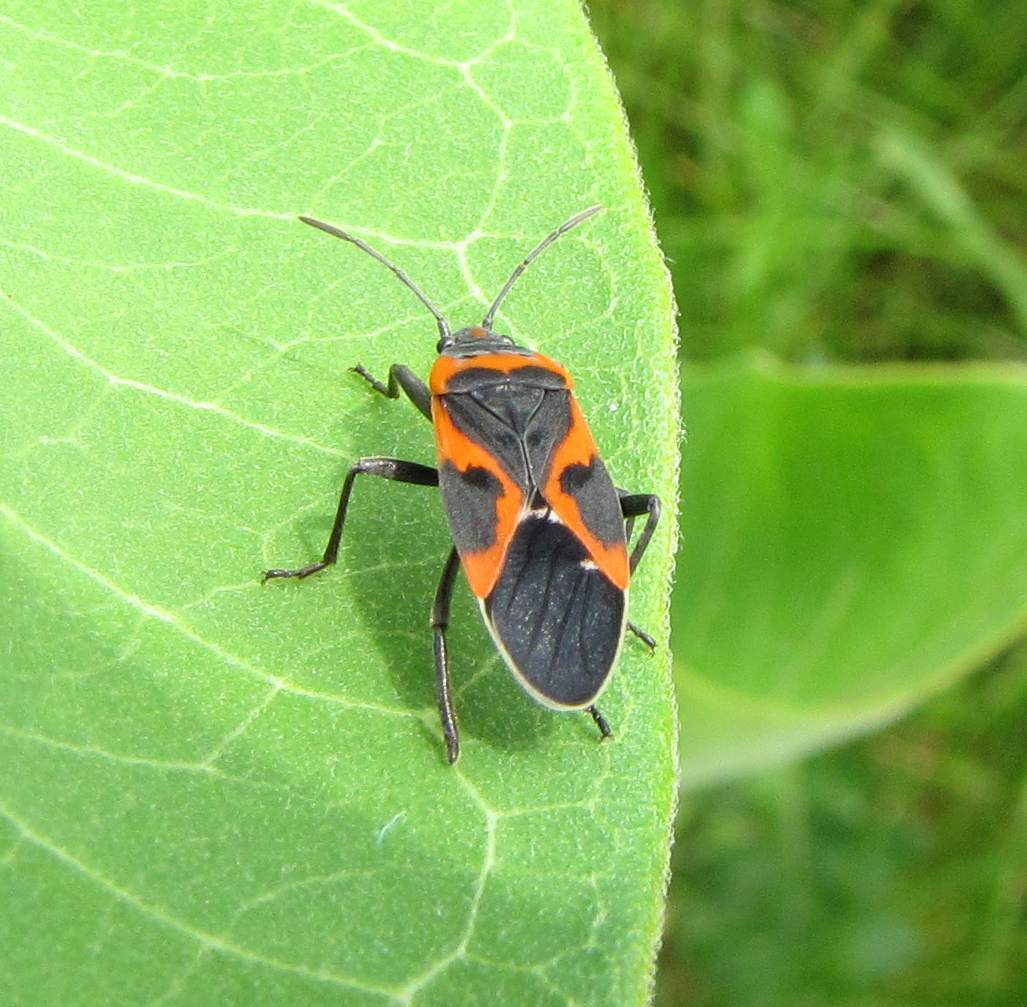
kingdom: Animalia
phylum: Arthropoda
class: Insecta
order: Hemiptera
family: Lygaeidae
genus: Lygaeus
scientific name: Lygaeus kalmii
